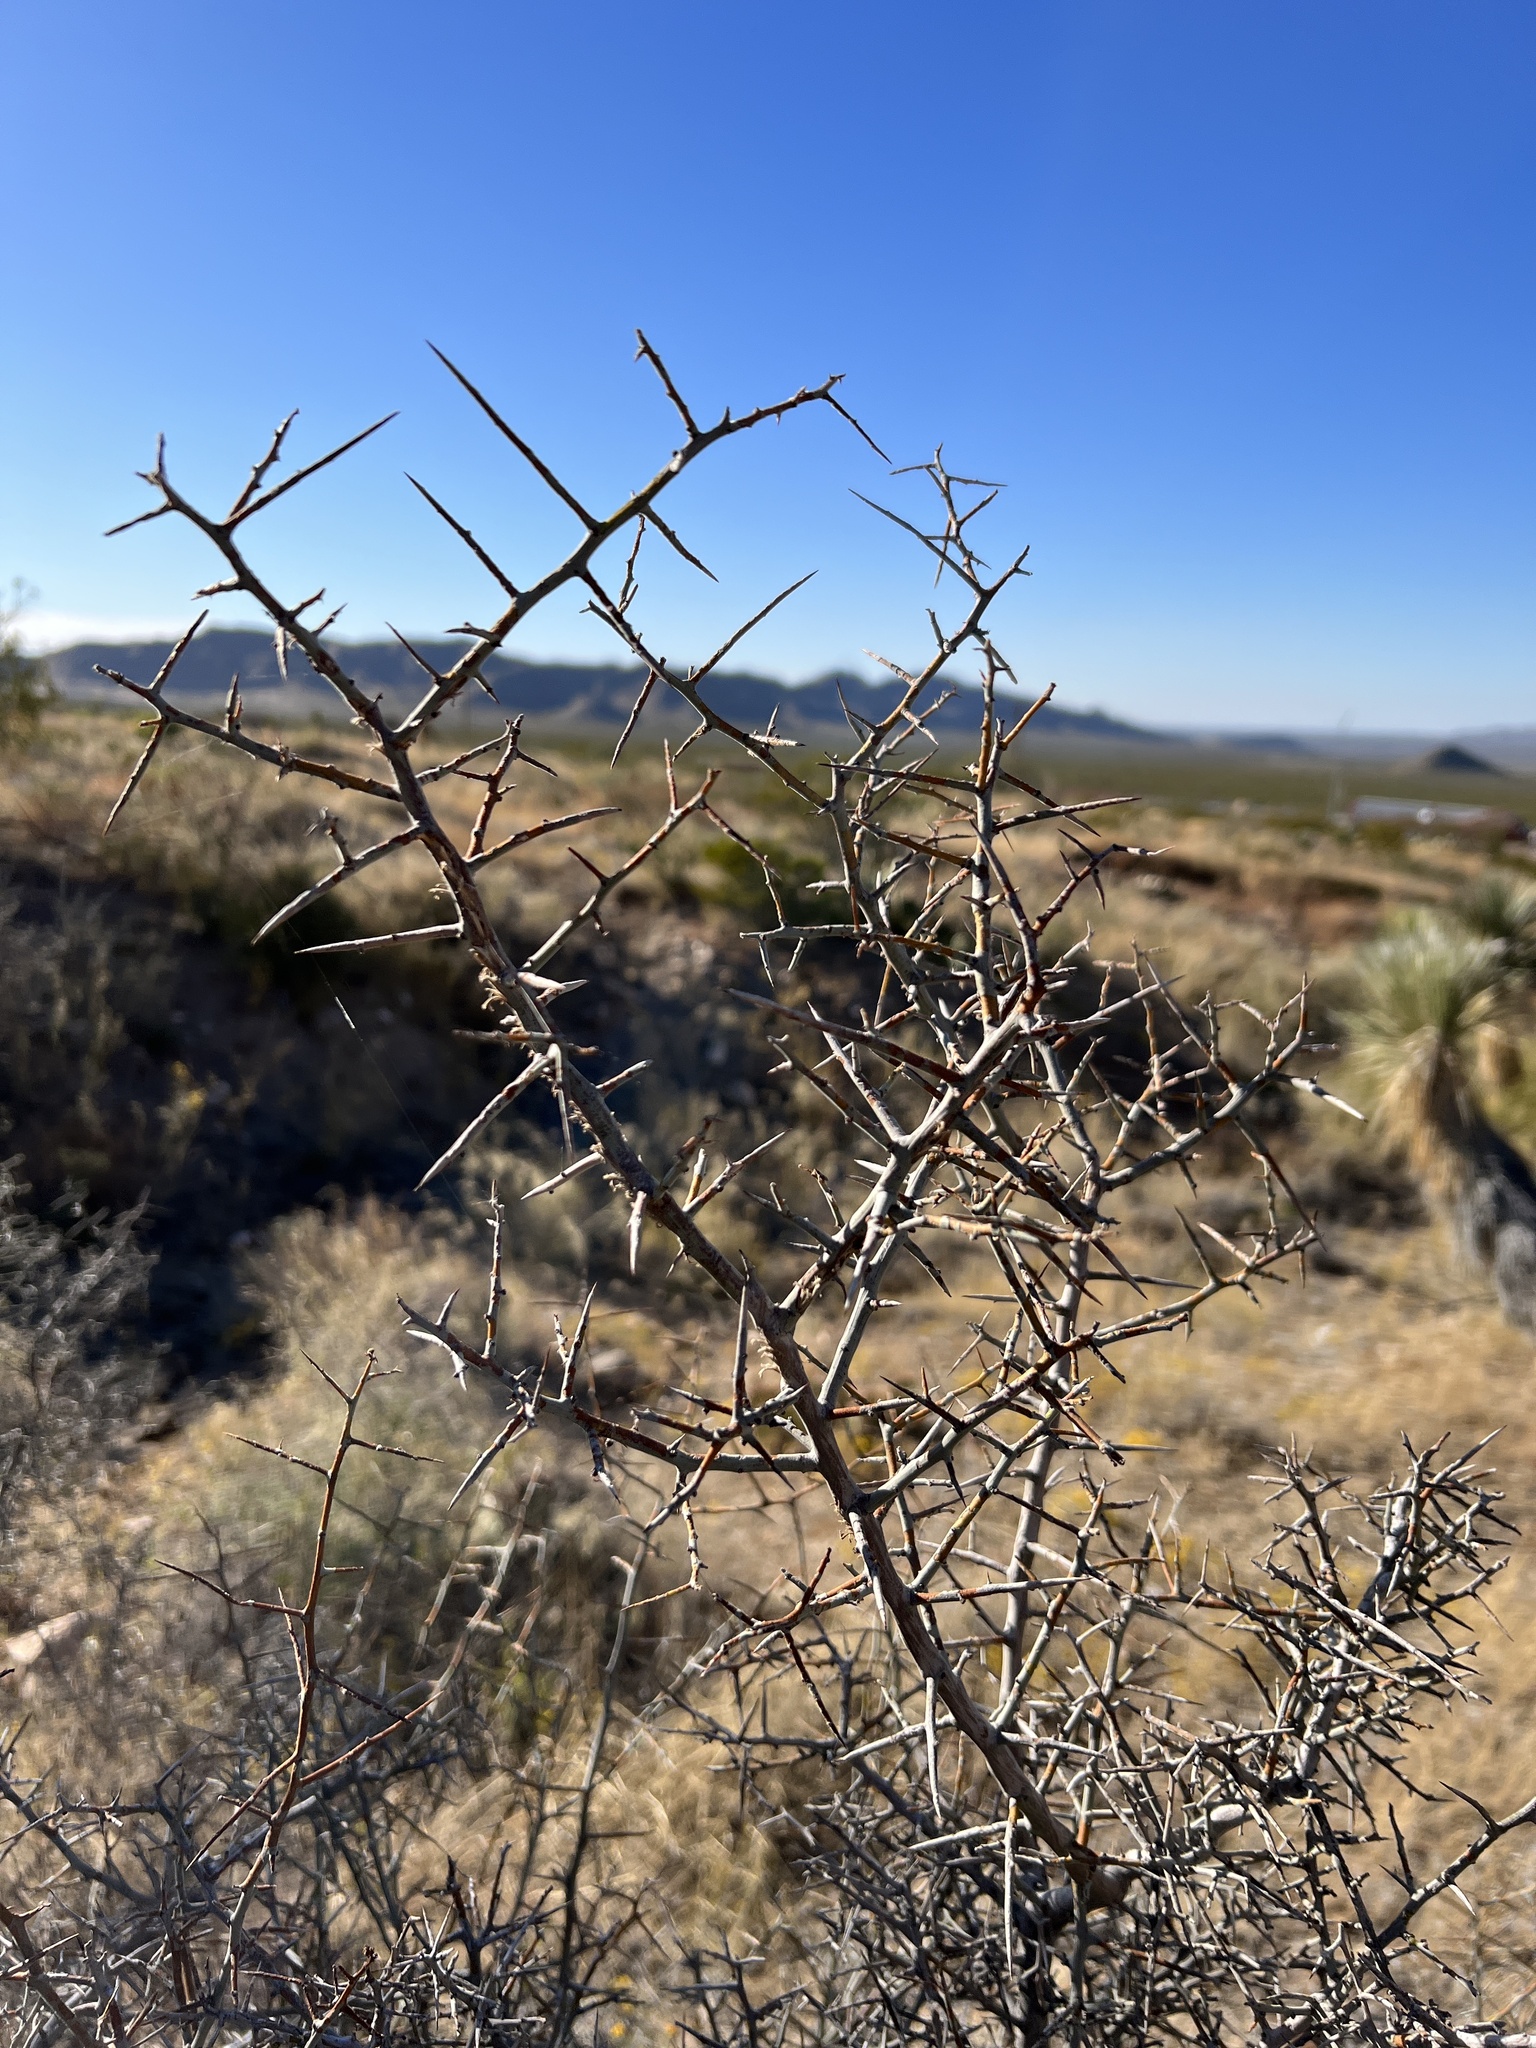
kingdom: Plantae
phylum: Tracheophyta
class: Magnoliopsida
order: Rosales
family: Rhamnaceae
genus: Sarcomphalus
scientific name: Sarcomphalus obtusifolius
